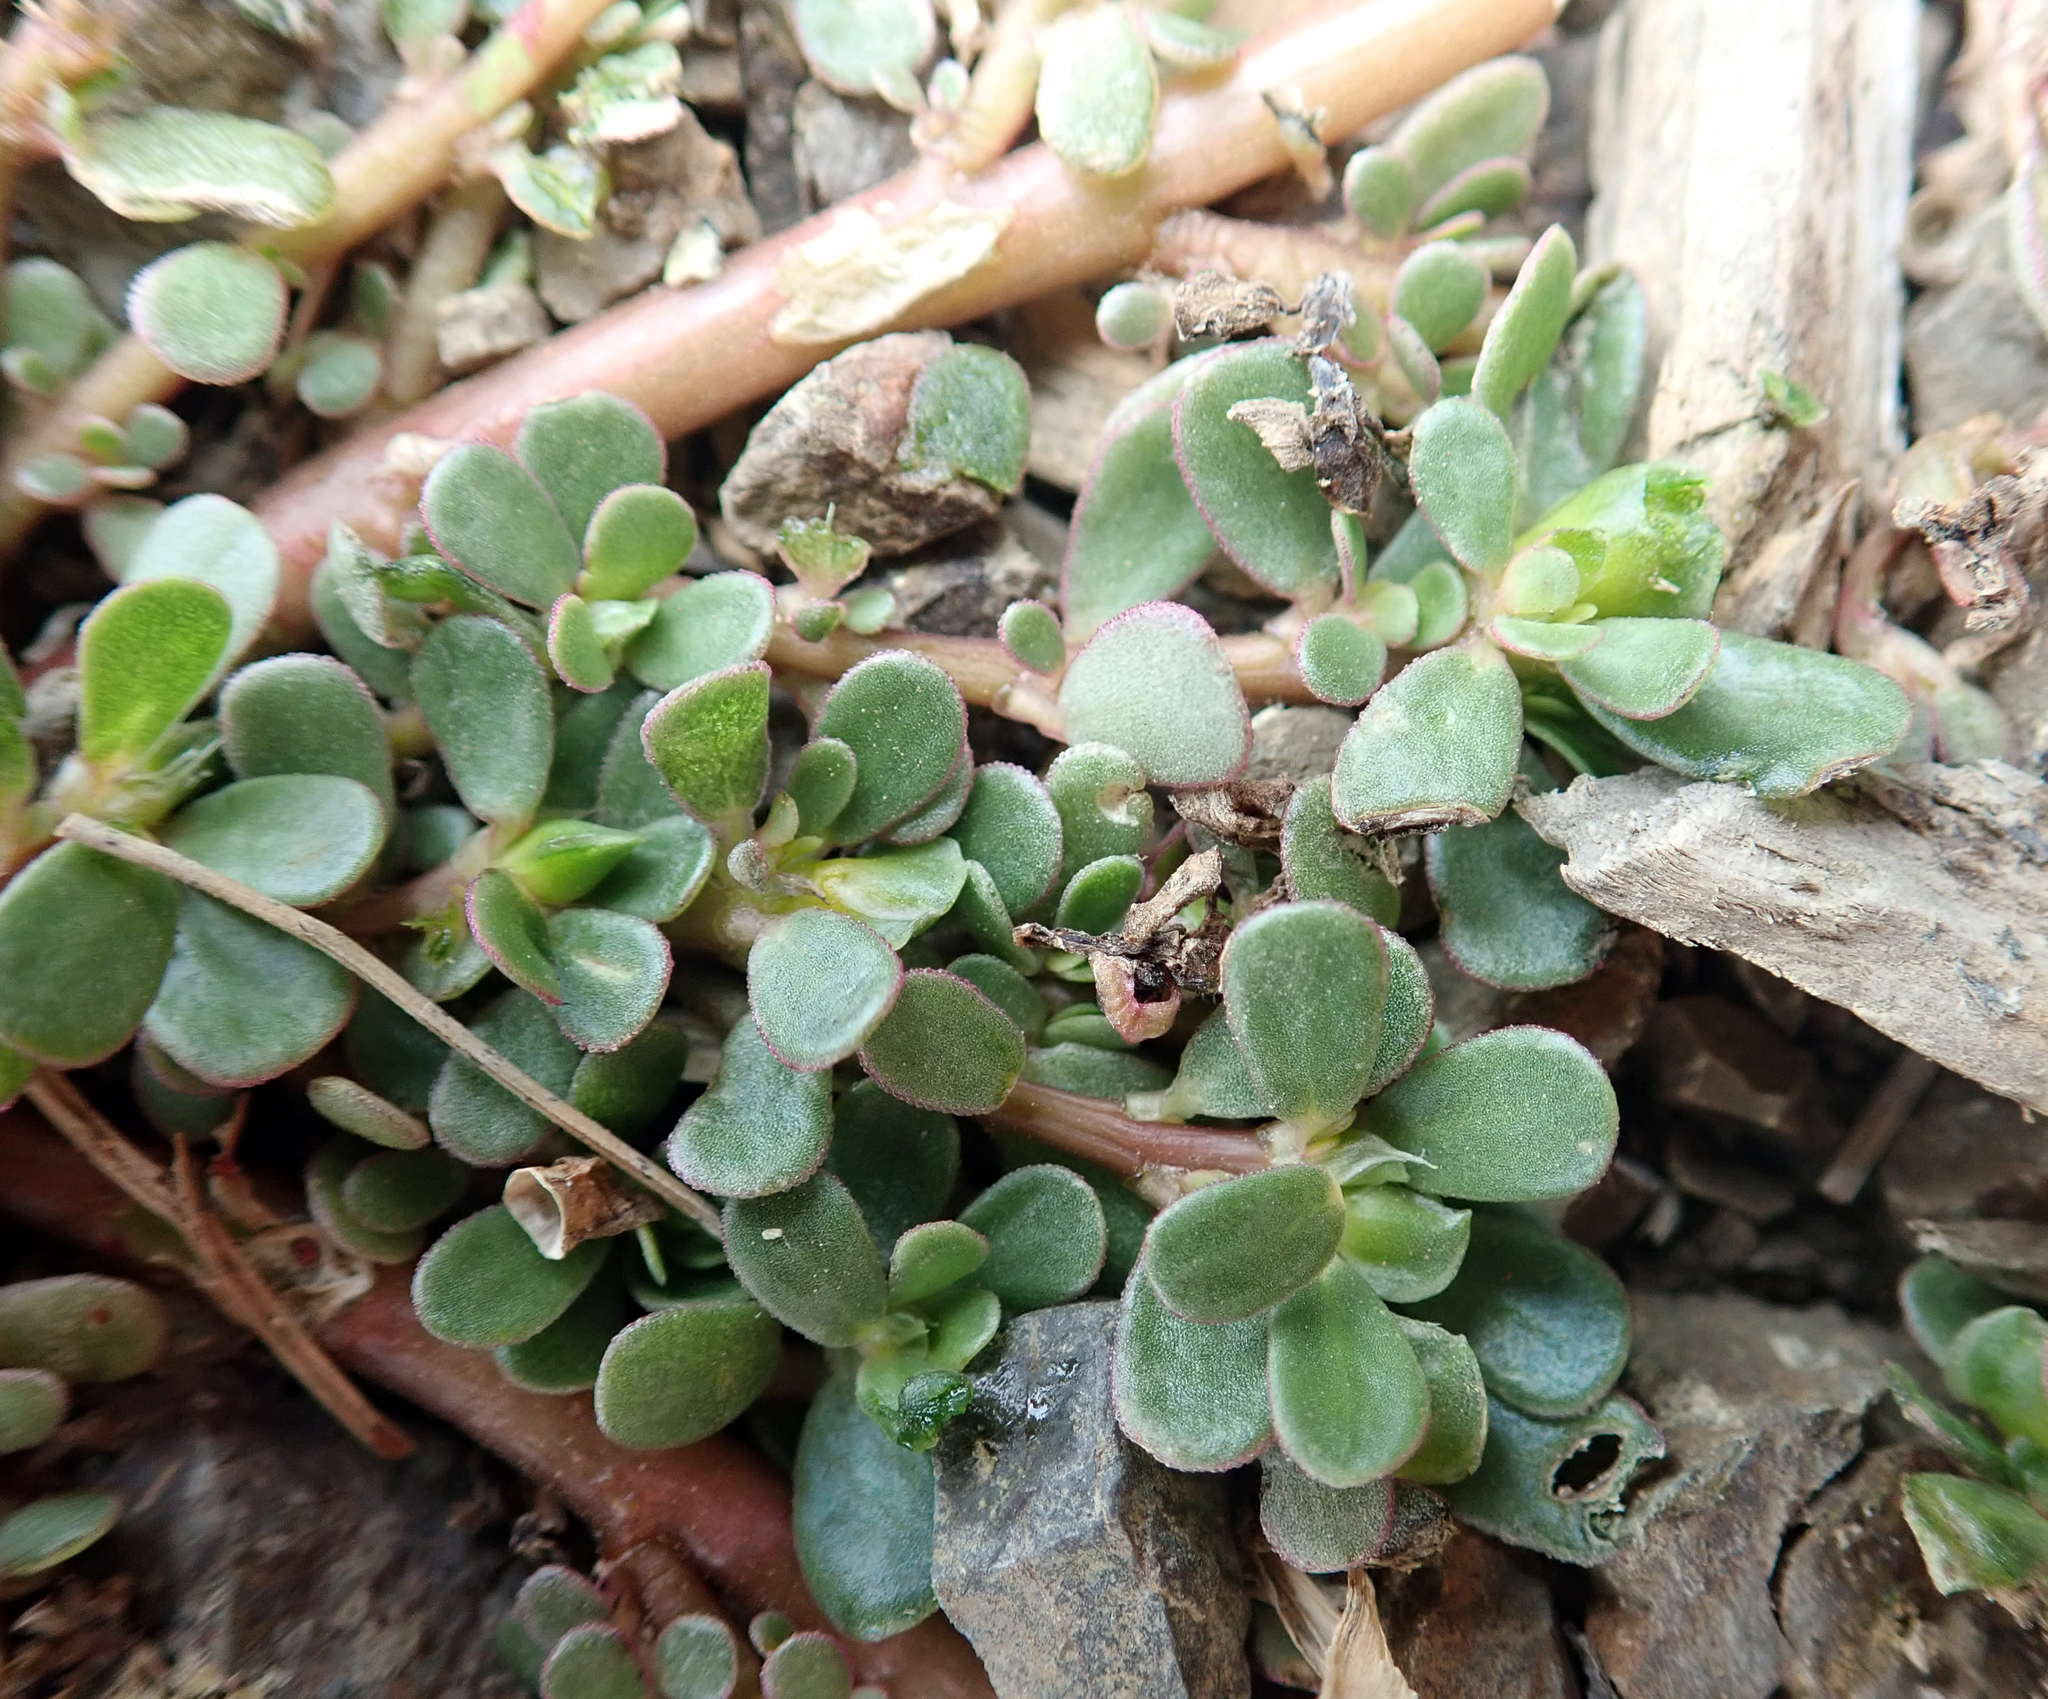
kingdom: Plantae
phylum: Tracheophyta
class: Magnoliopsida
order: Caryophyllales
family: Portulacaceae
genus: Portulaca
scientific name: Portulaca oleracea
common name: Common purslane
